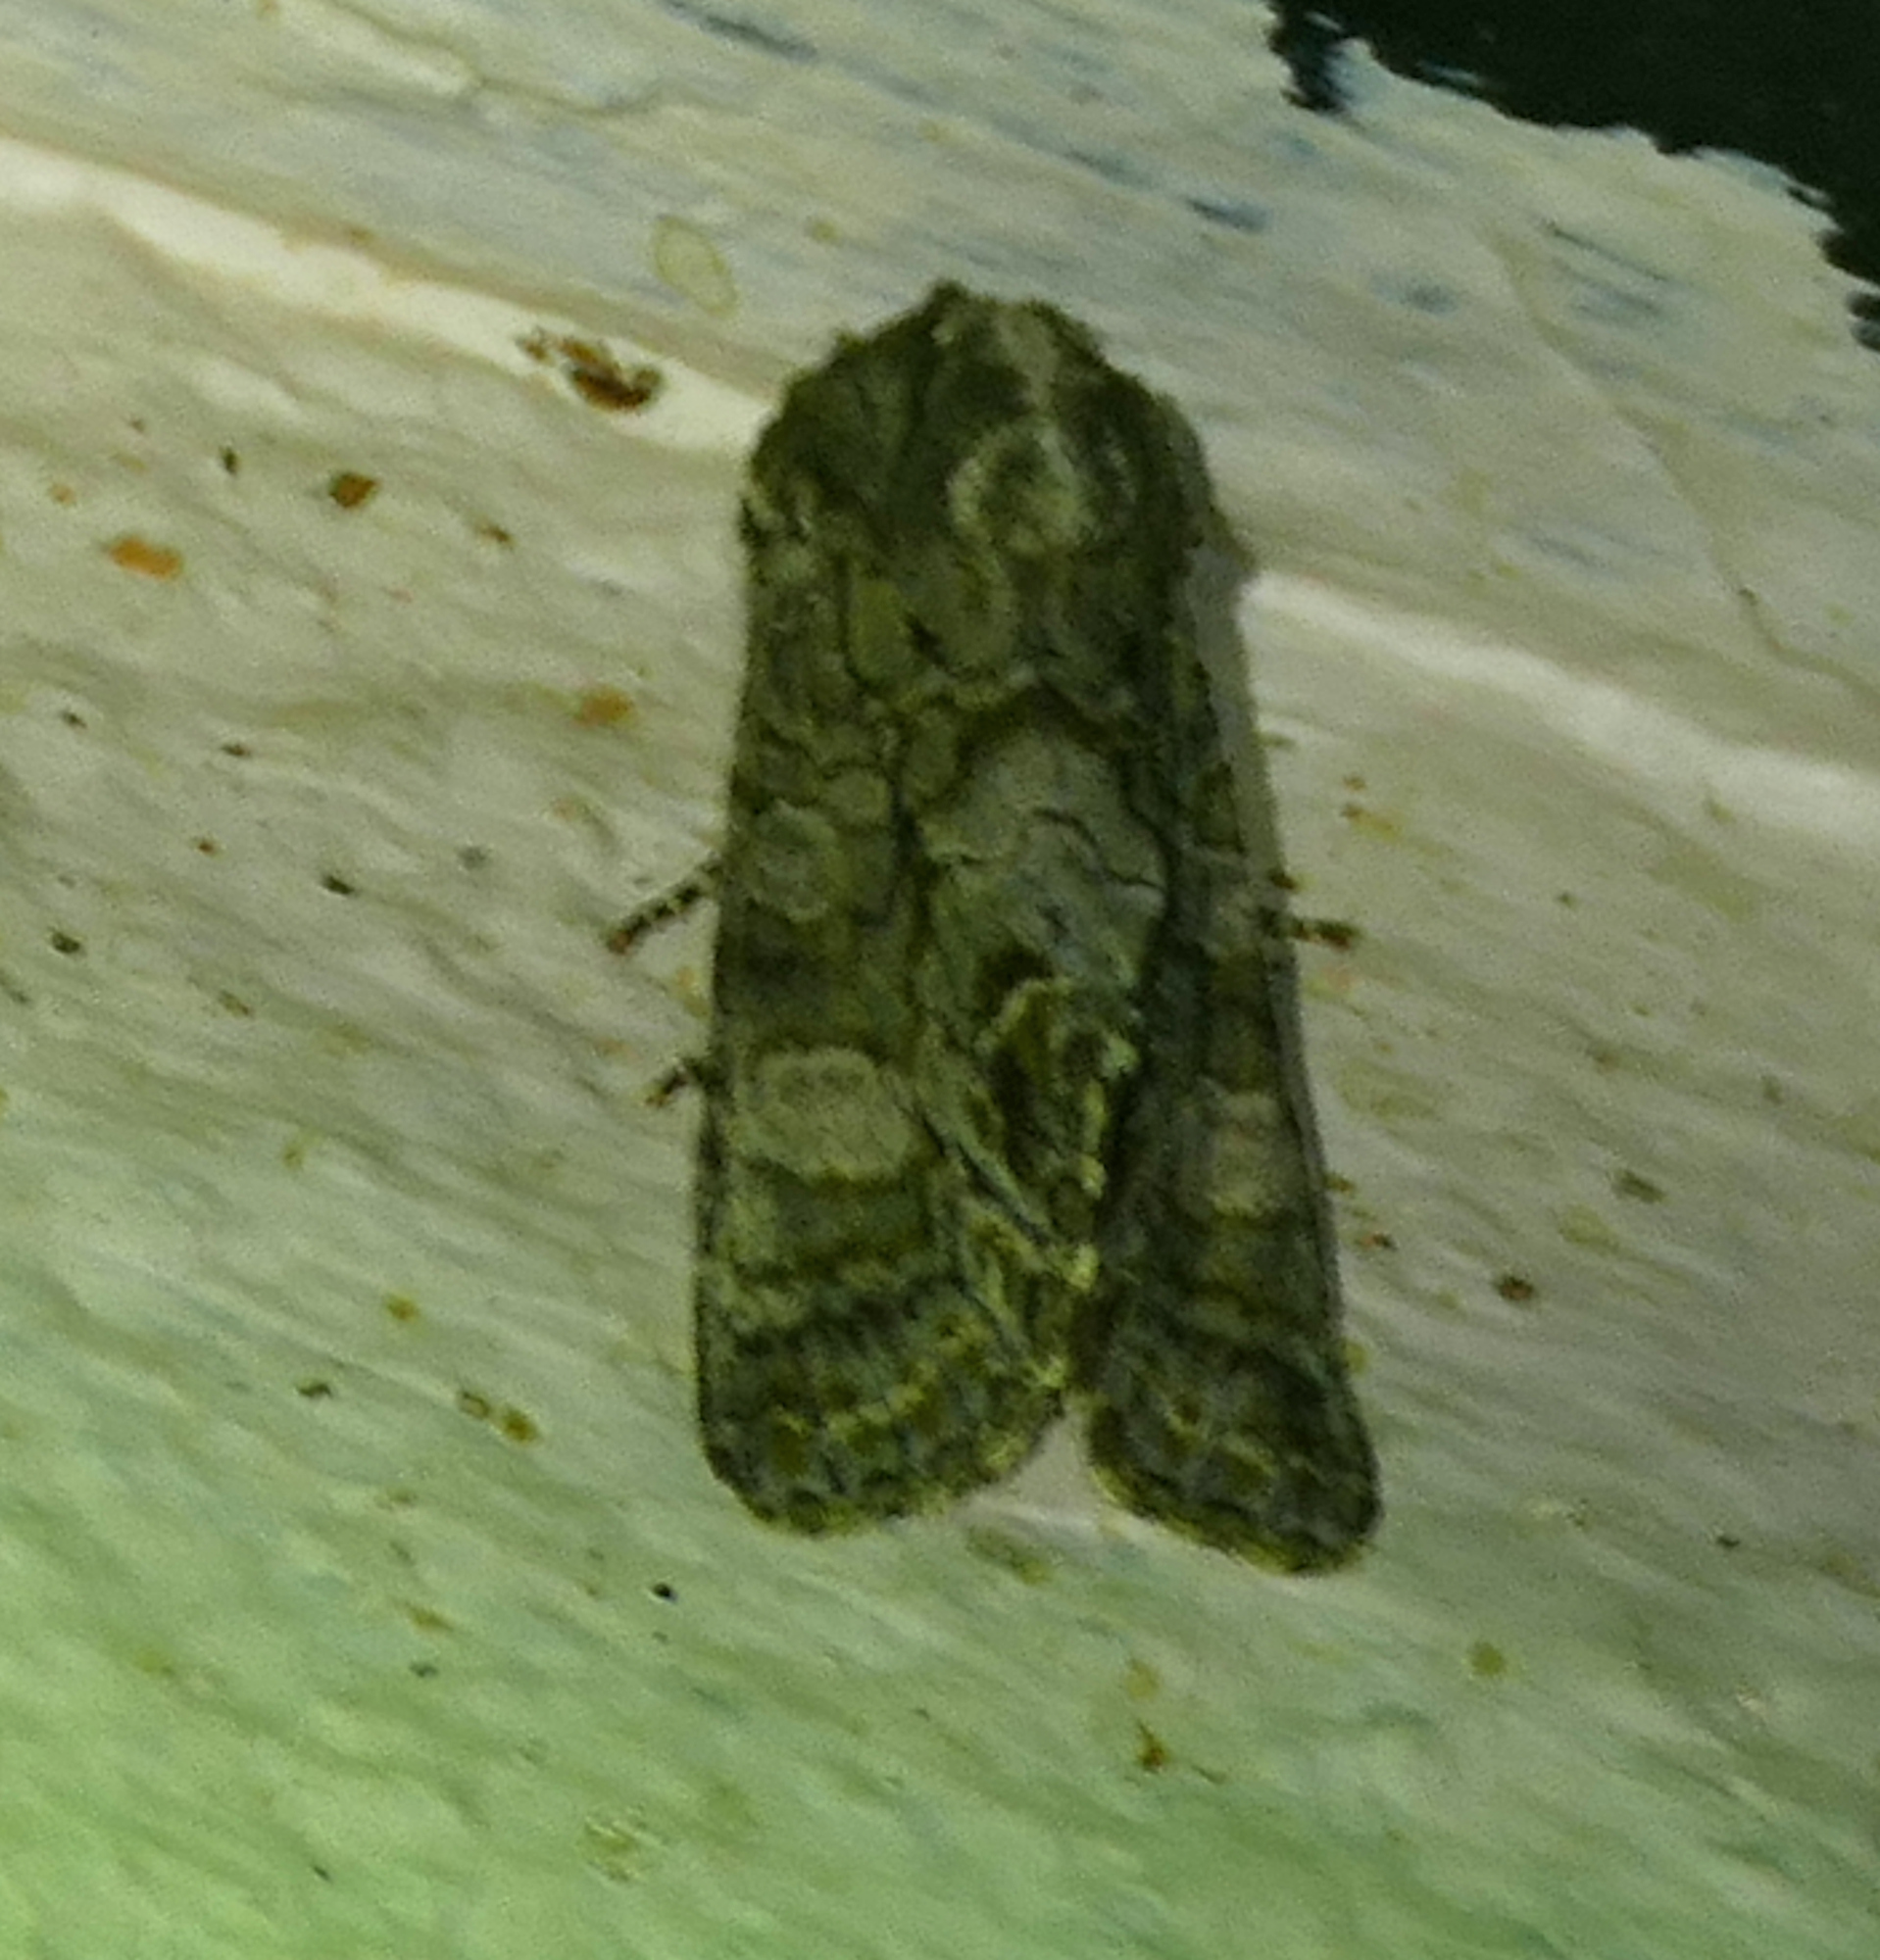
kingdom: Animalia
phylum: Arthropoda
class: Insecta
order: Lepidoptera
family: Noctuidae
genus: Psaphida
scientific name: Psaphida grotei
